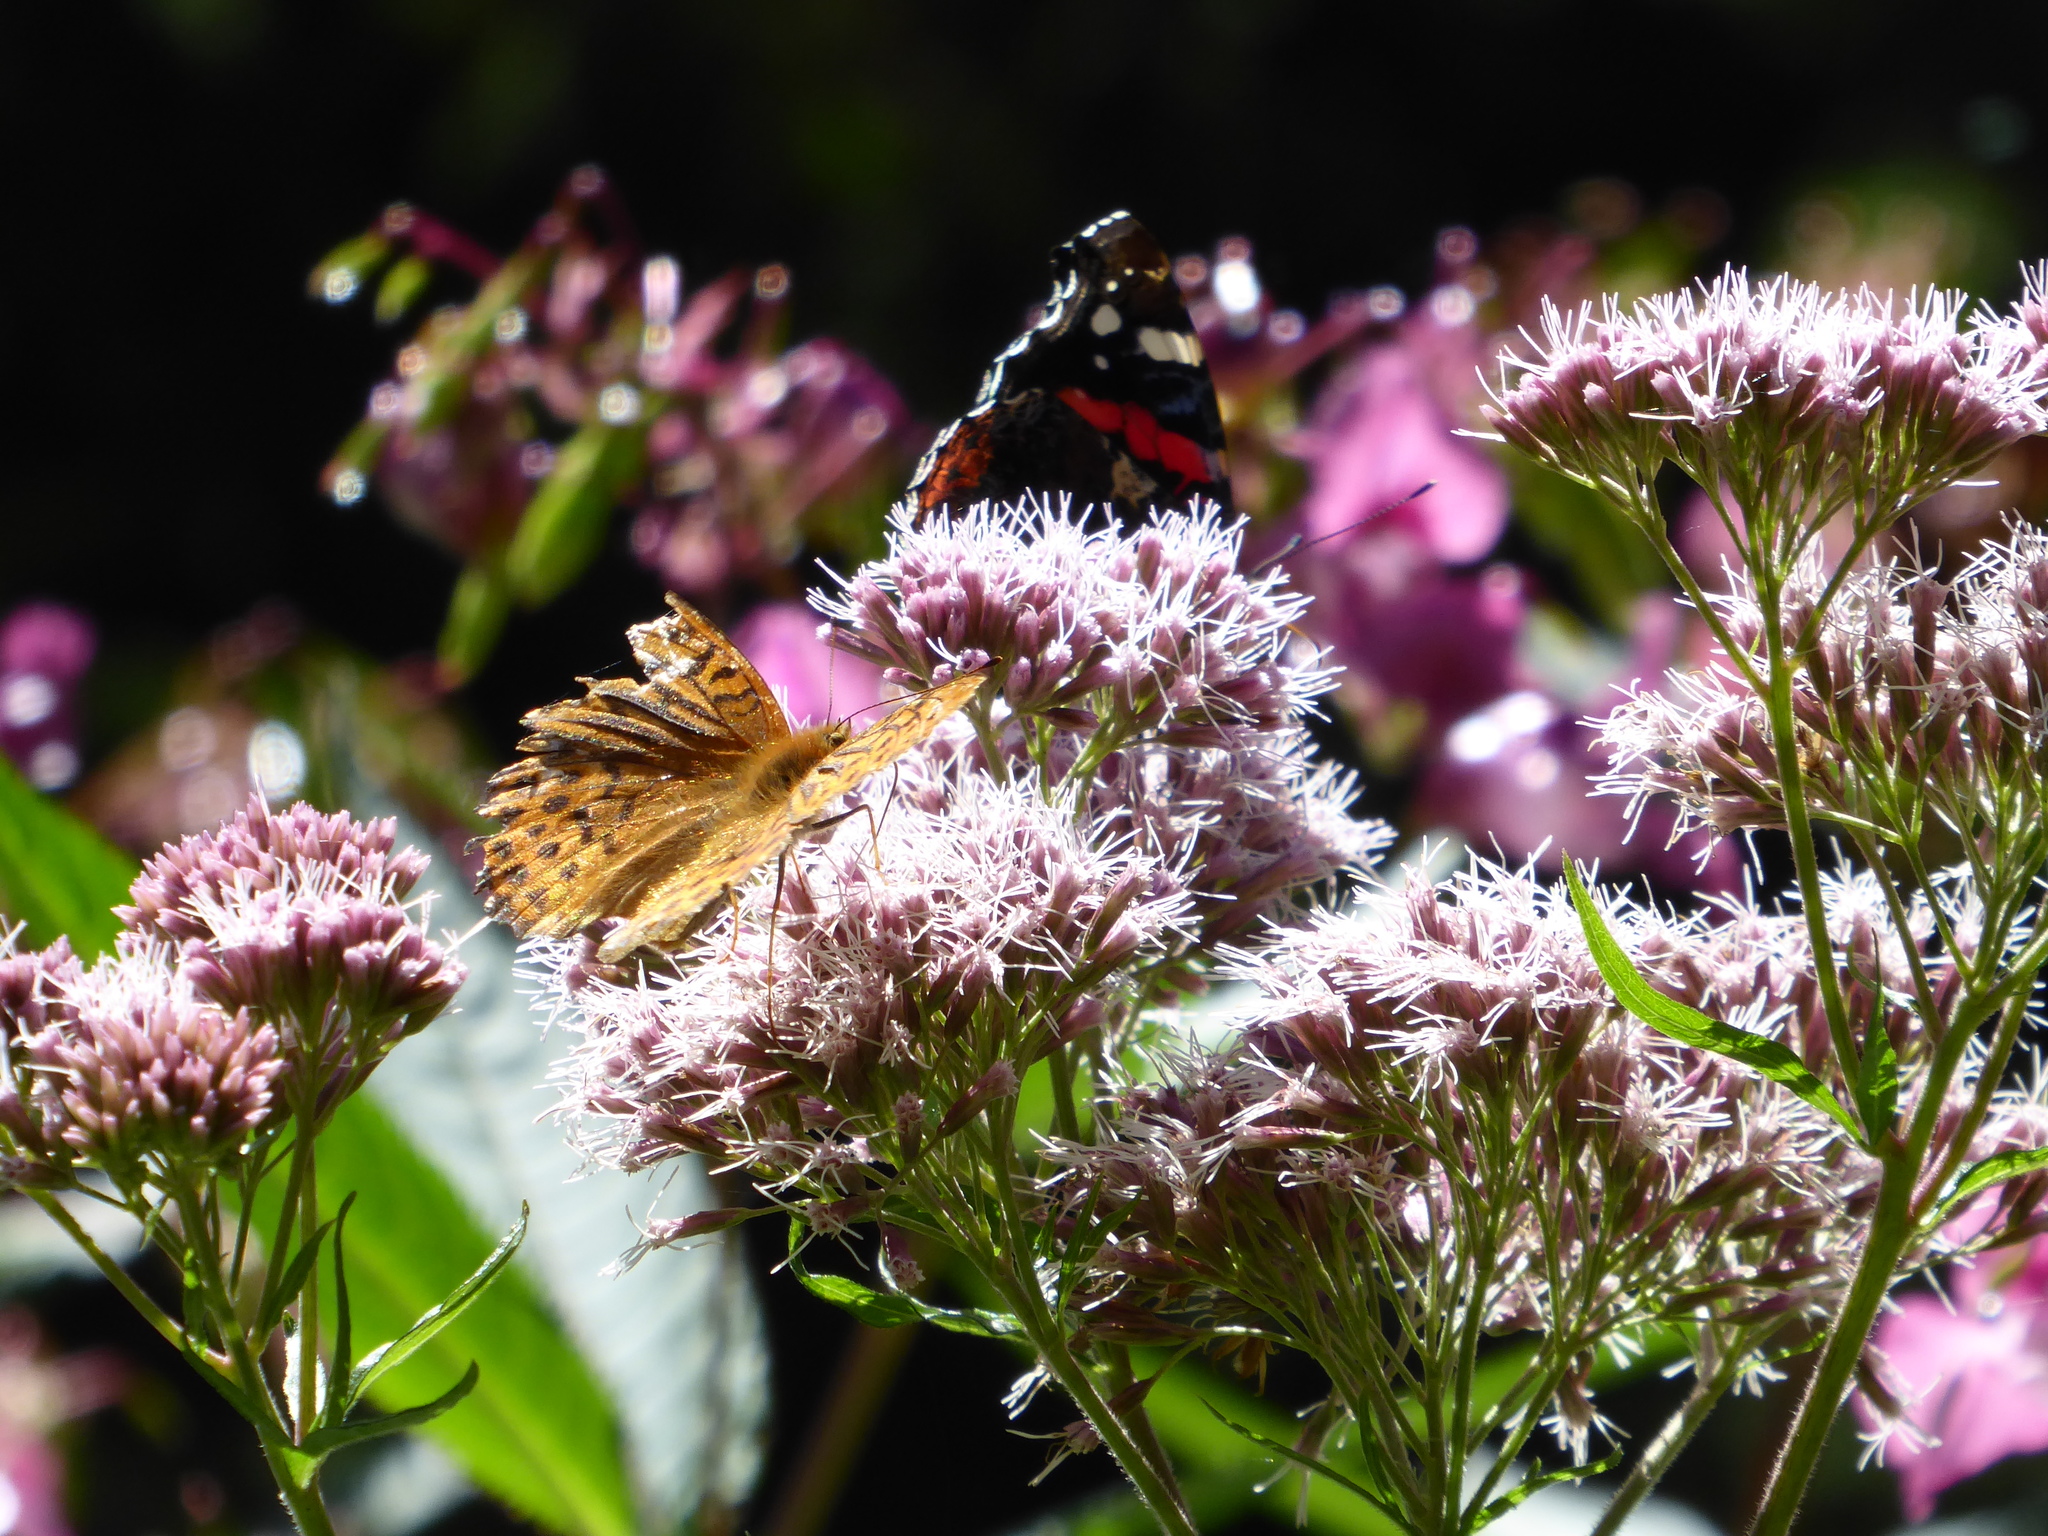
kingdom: Animalia
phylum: Arthropoda
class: Insecta
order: Lepidoptera
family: Nymphalidae
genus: Argynnis
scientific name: Argynnis paphia
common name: Silver-washed fritillary
